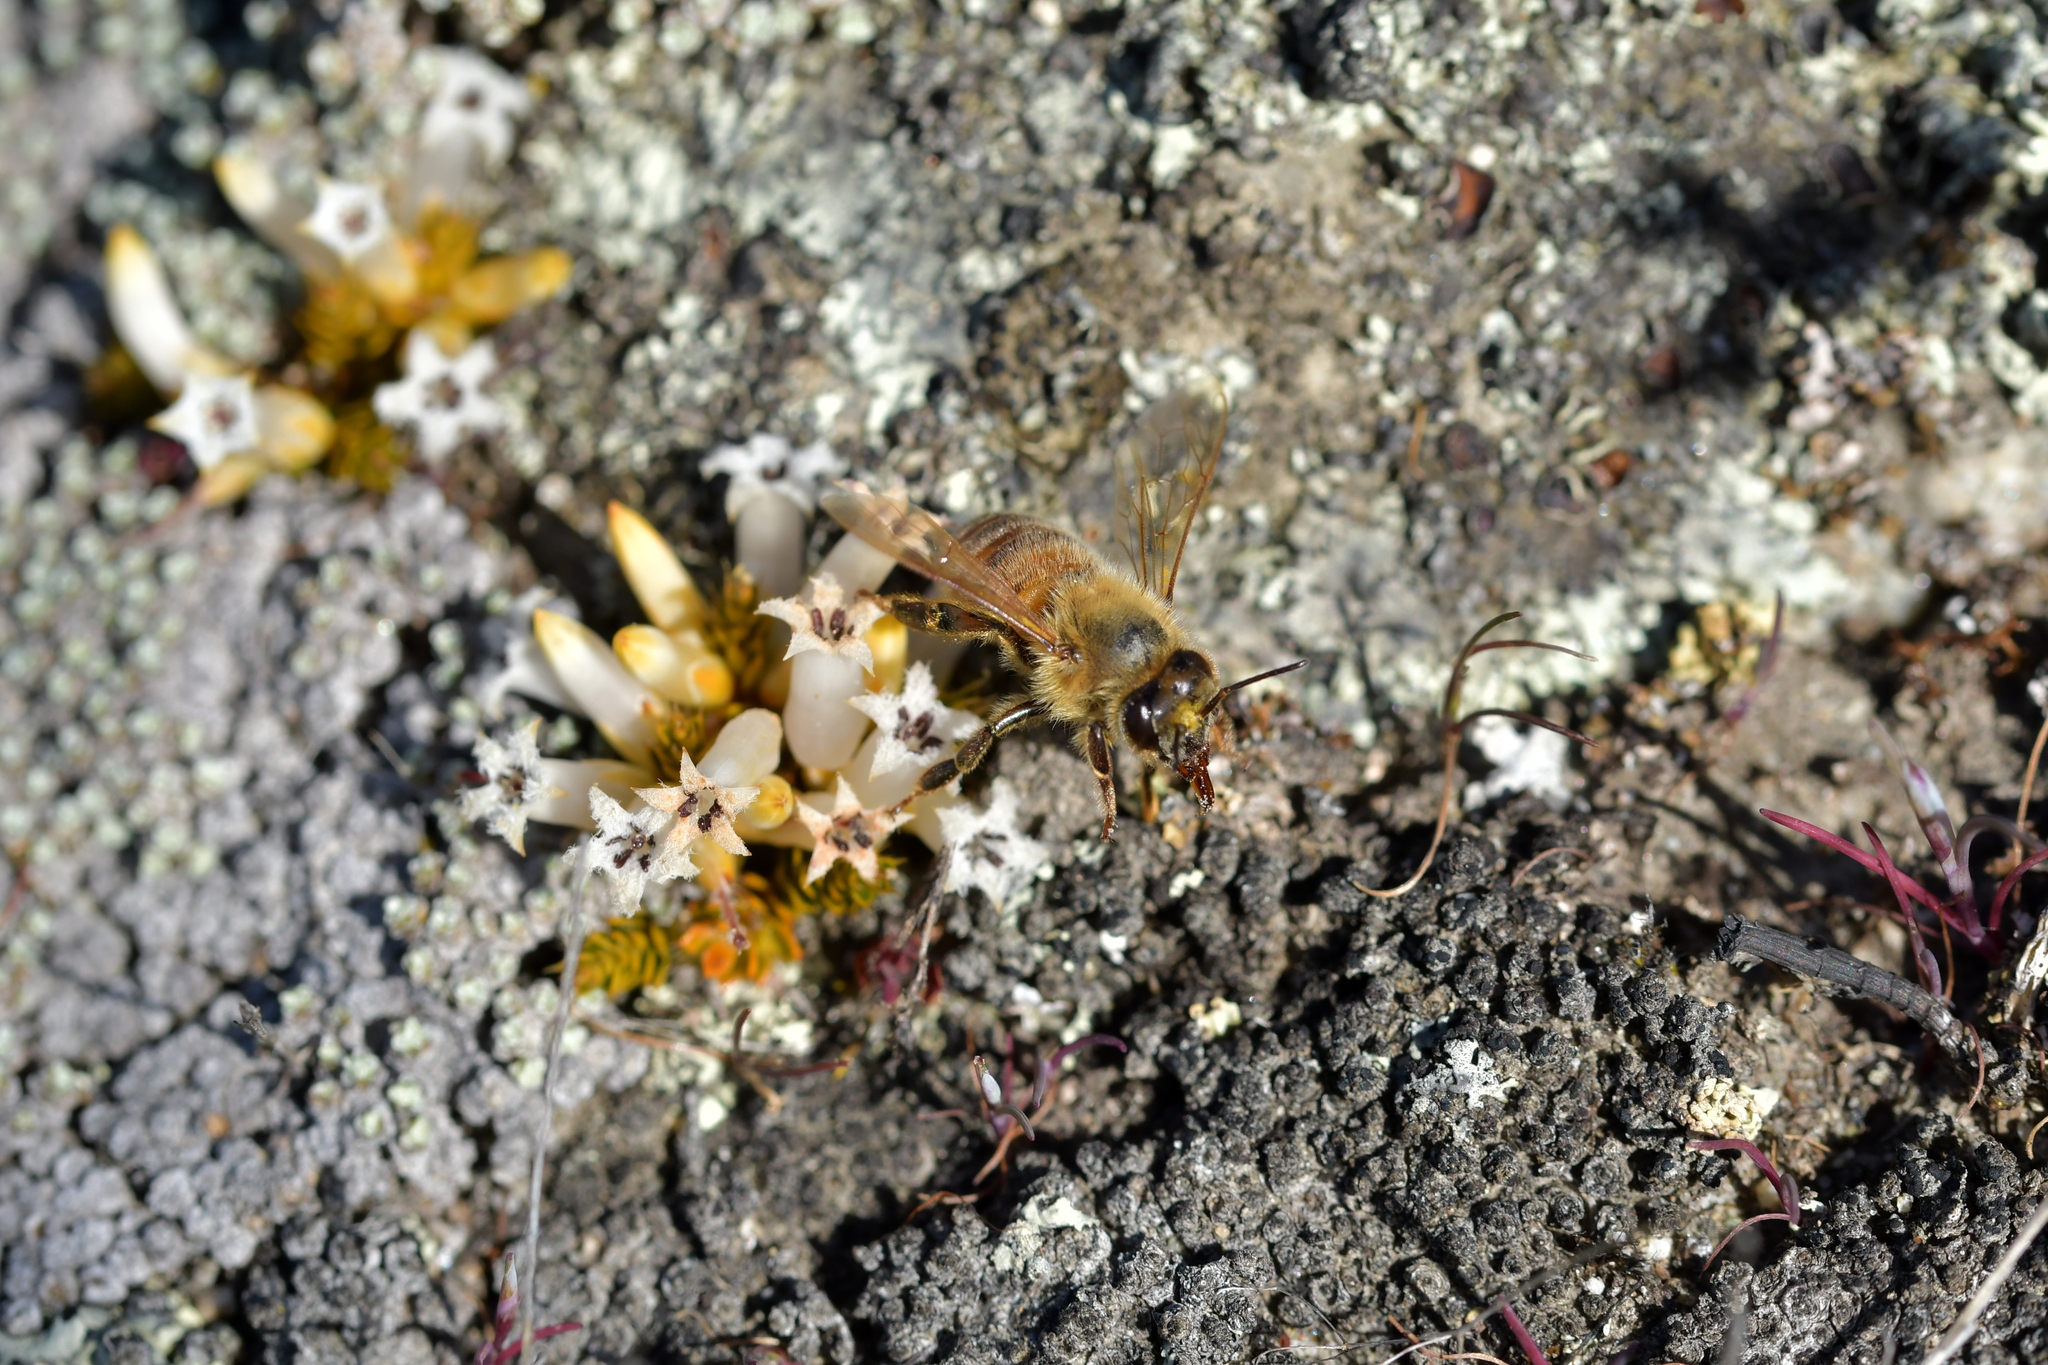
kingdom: Animalia
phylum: Arthropoda
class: Insecta
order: Hymenoptera
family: Apidae
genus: Apis
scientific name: Apis mellifera
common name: Honey bee
